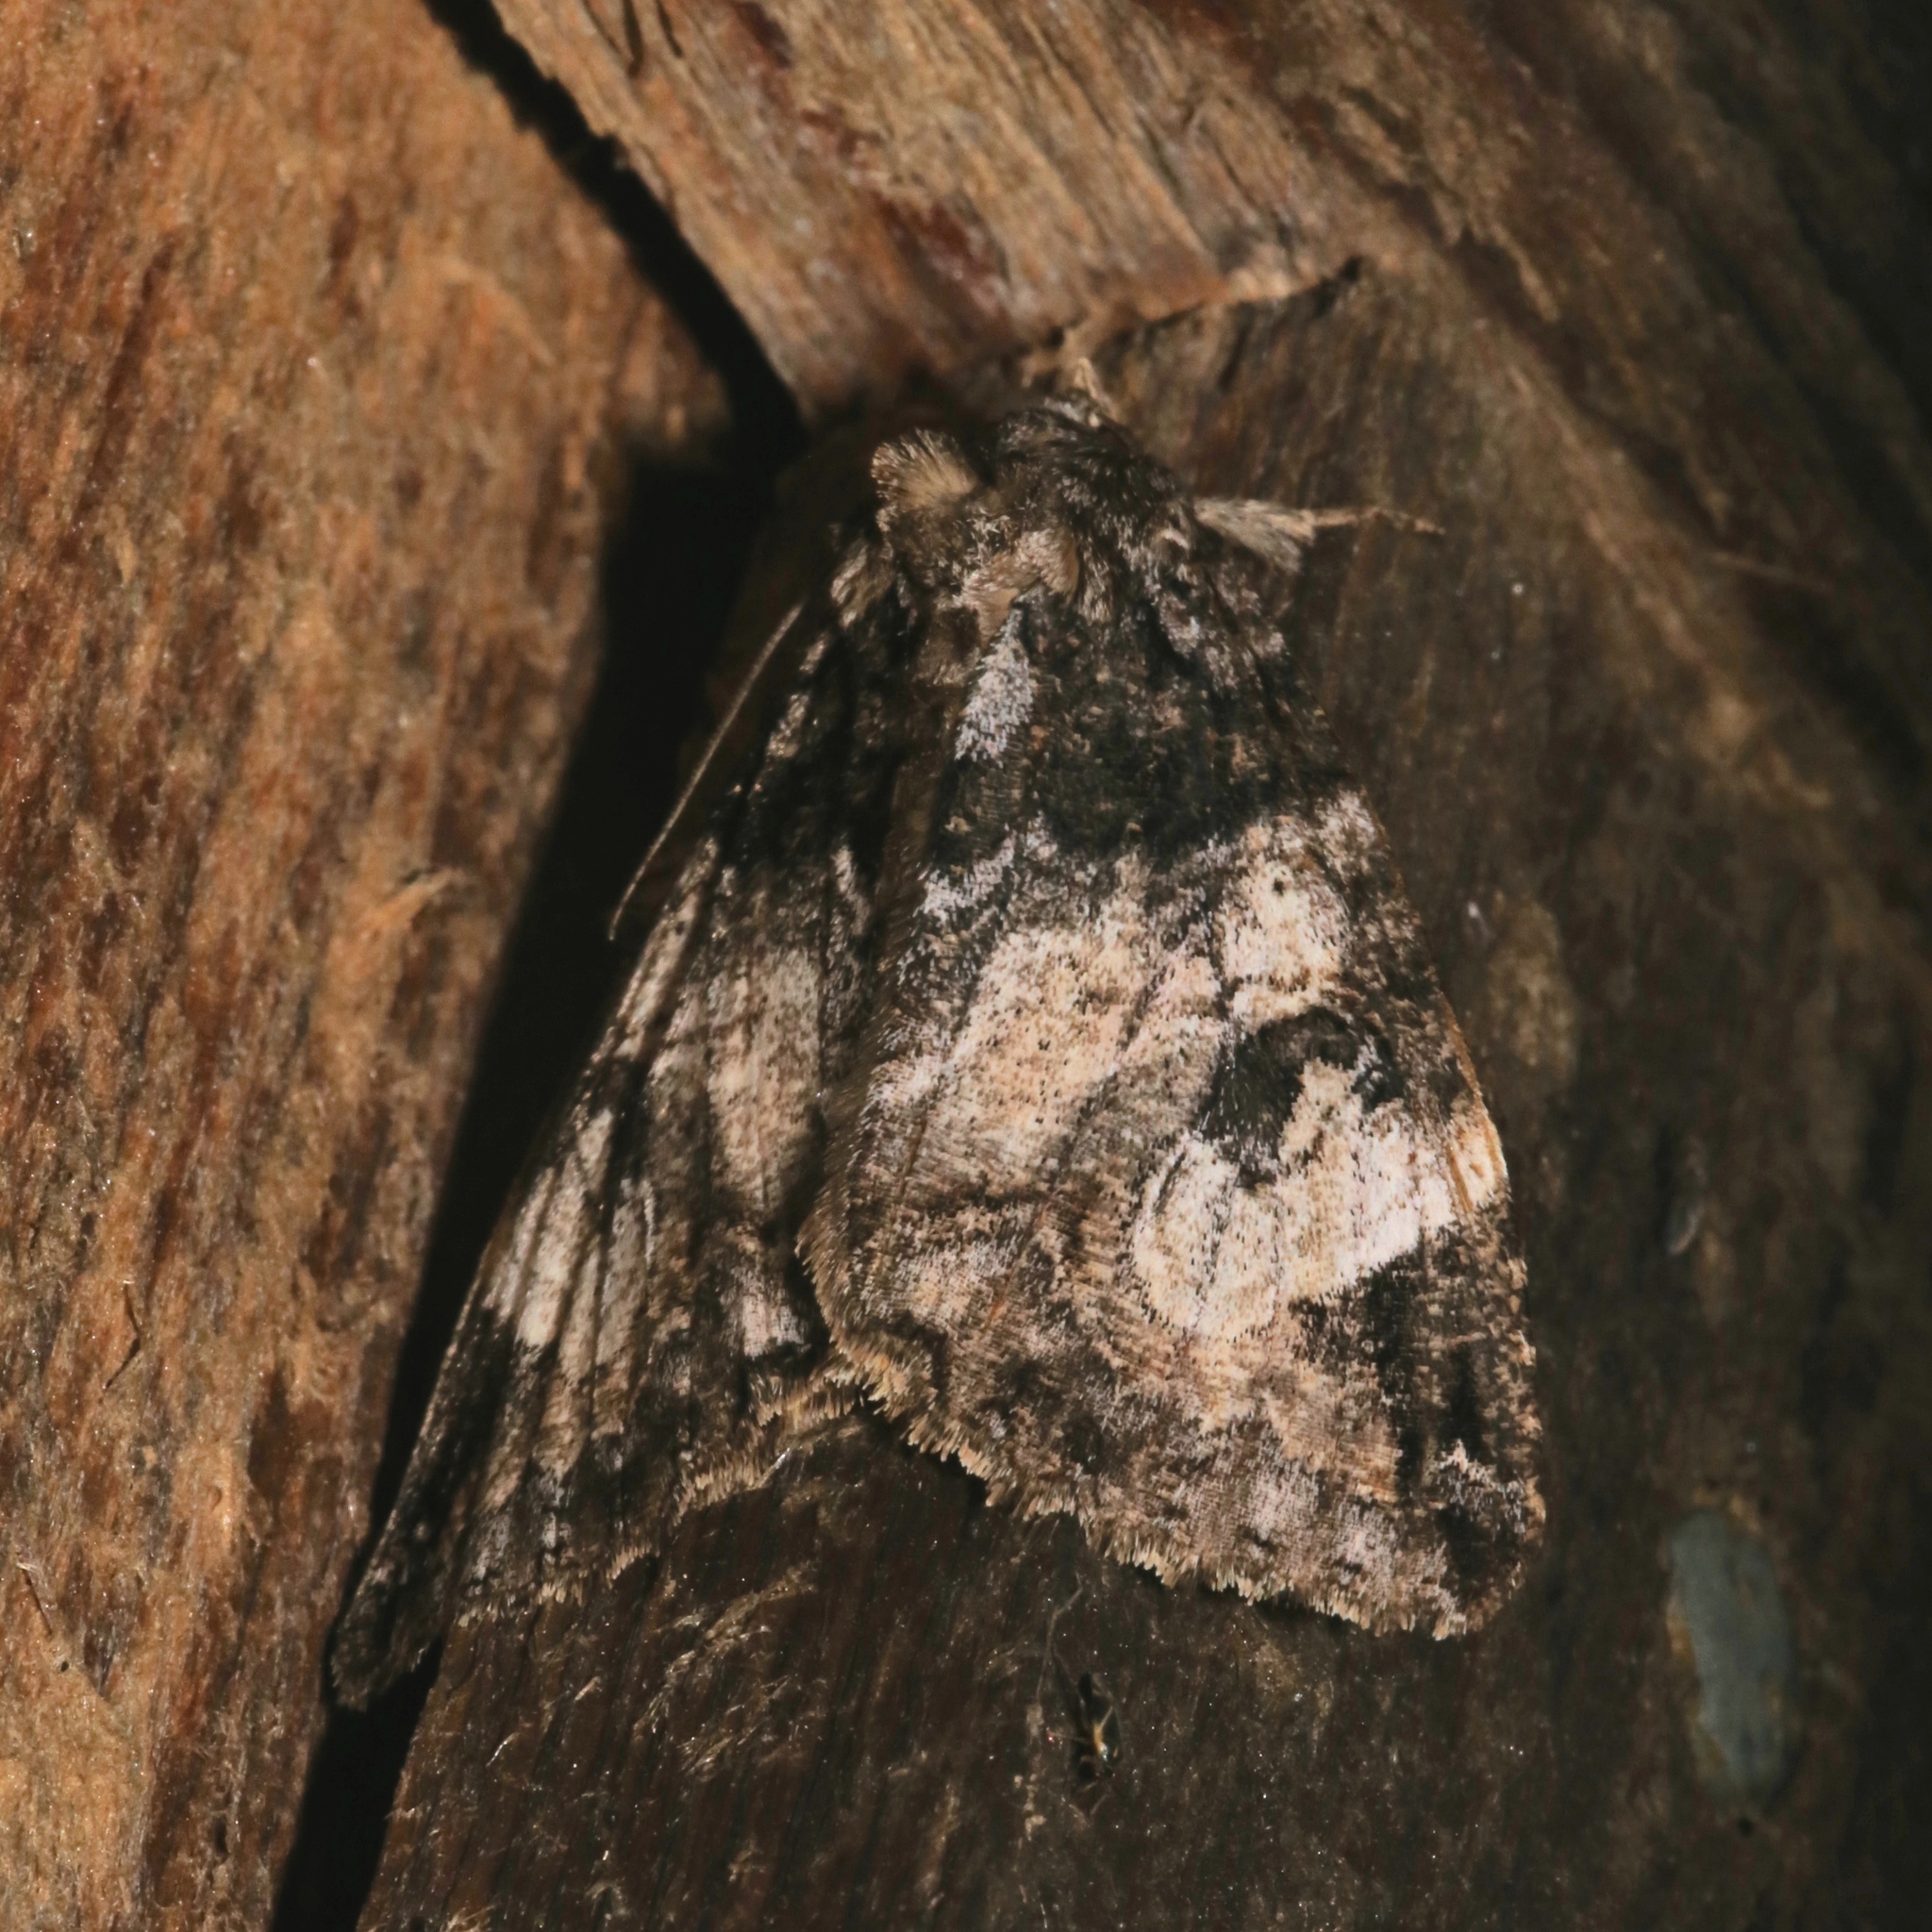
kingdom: Animalia
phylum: Arthropoda
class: Insecta
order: Lepidoptera
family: Erebidae
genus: Euparthenos
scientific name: Euparthenos nubilis
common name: Locust underwing
